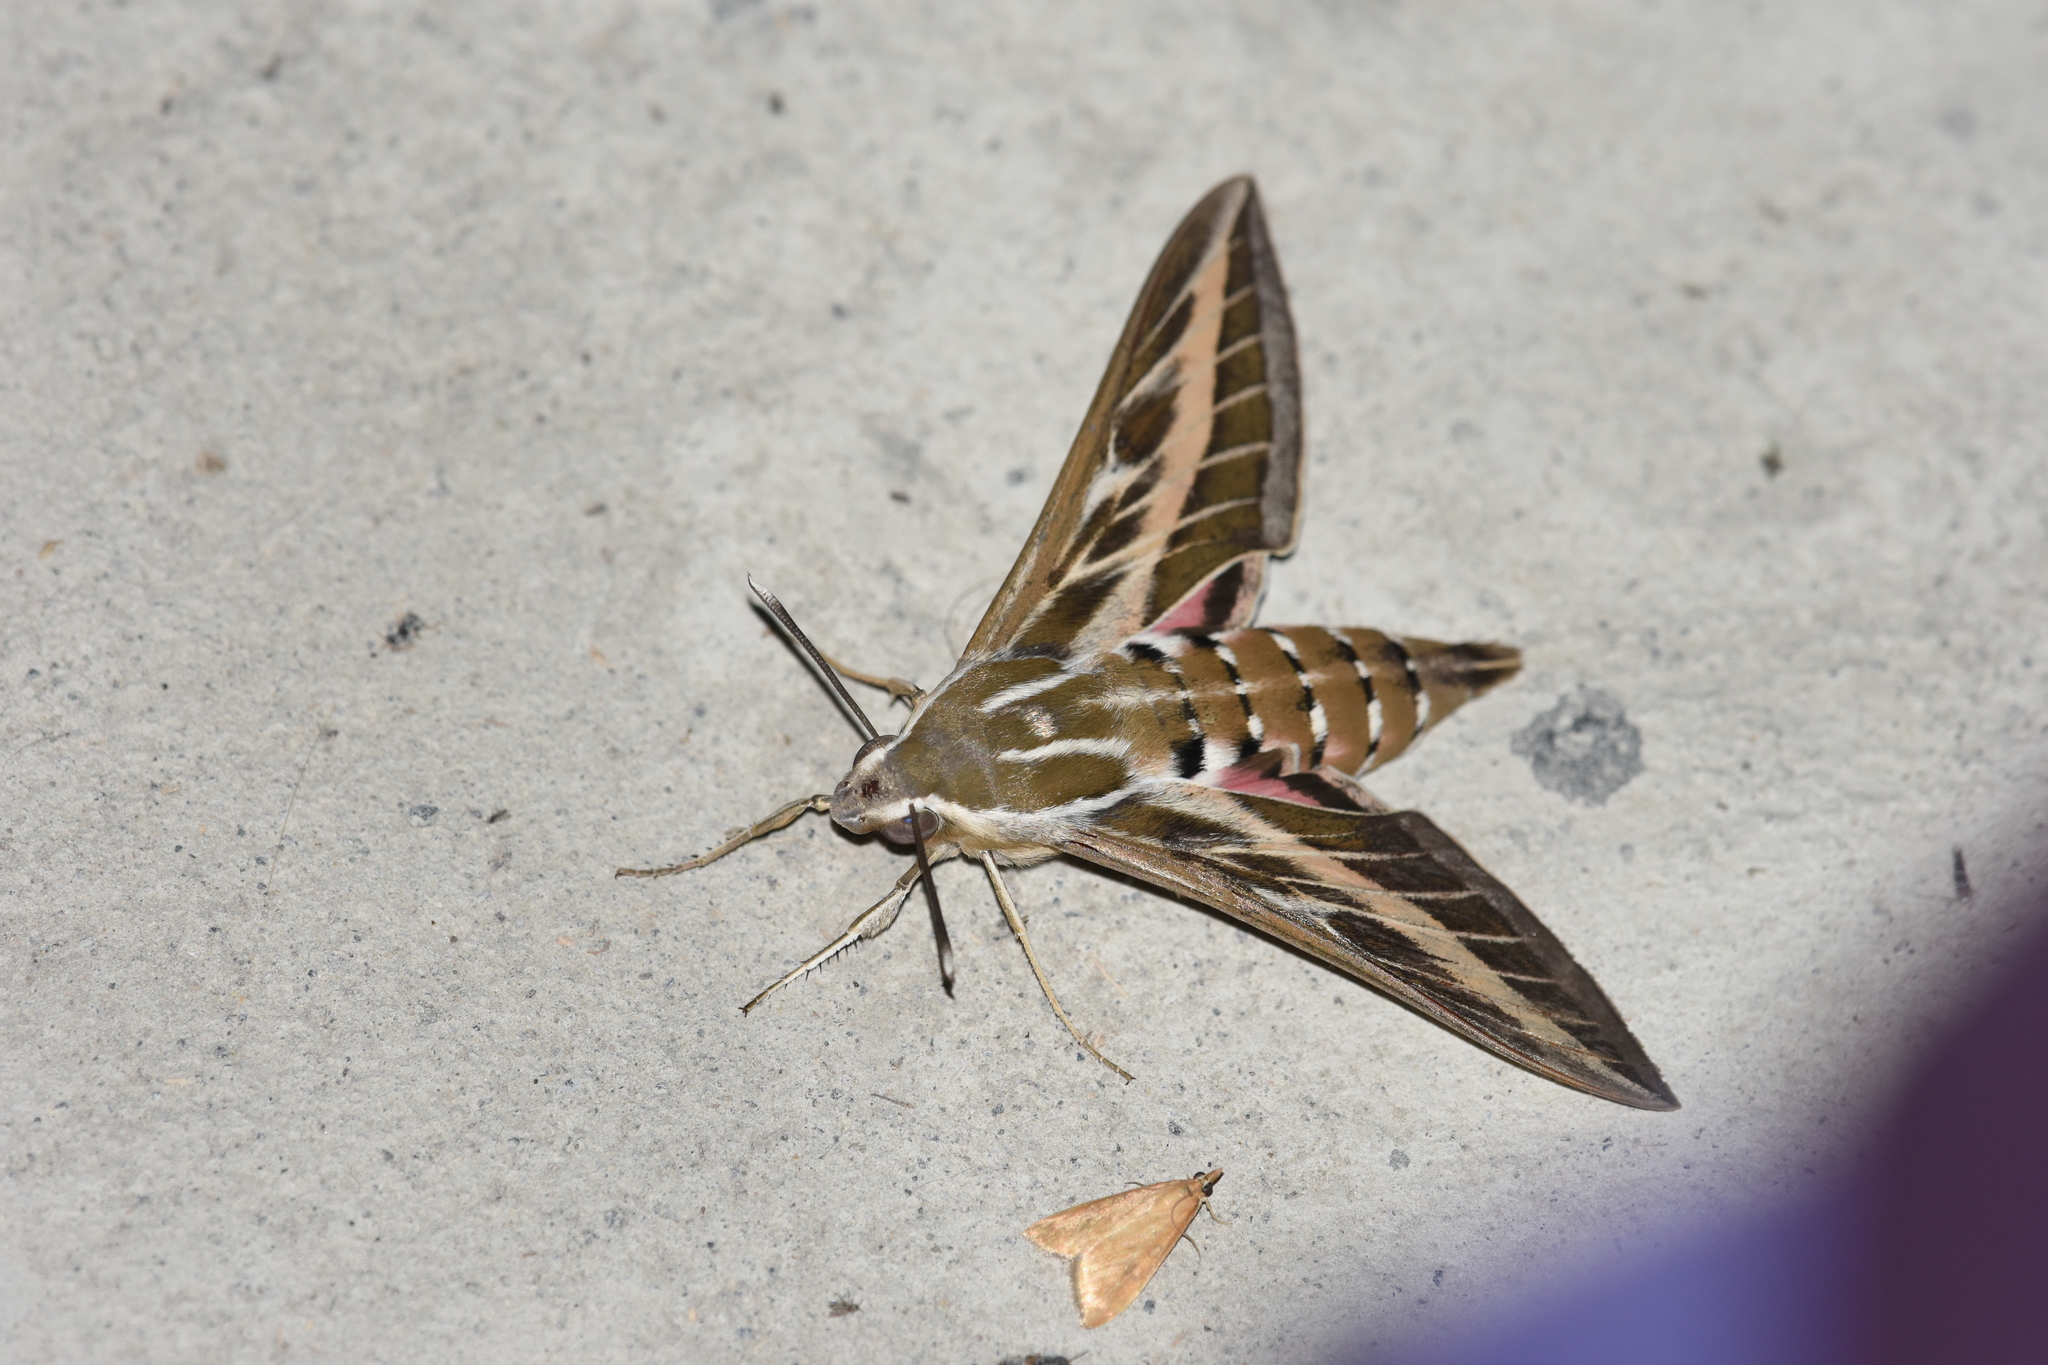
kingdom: Animalia
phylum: Arthropoda
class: Insecta
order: Lepidoptera
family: Sphingidae
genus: Hyles
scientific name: Hyles livornica
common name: Striped hawk-moth
